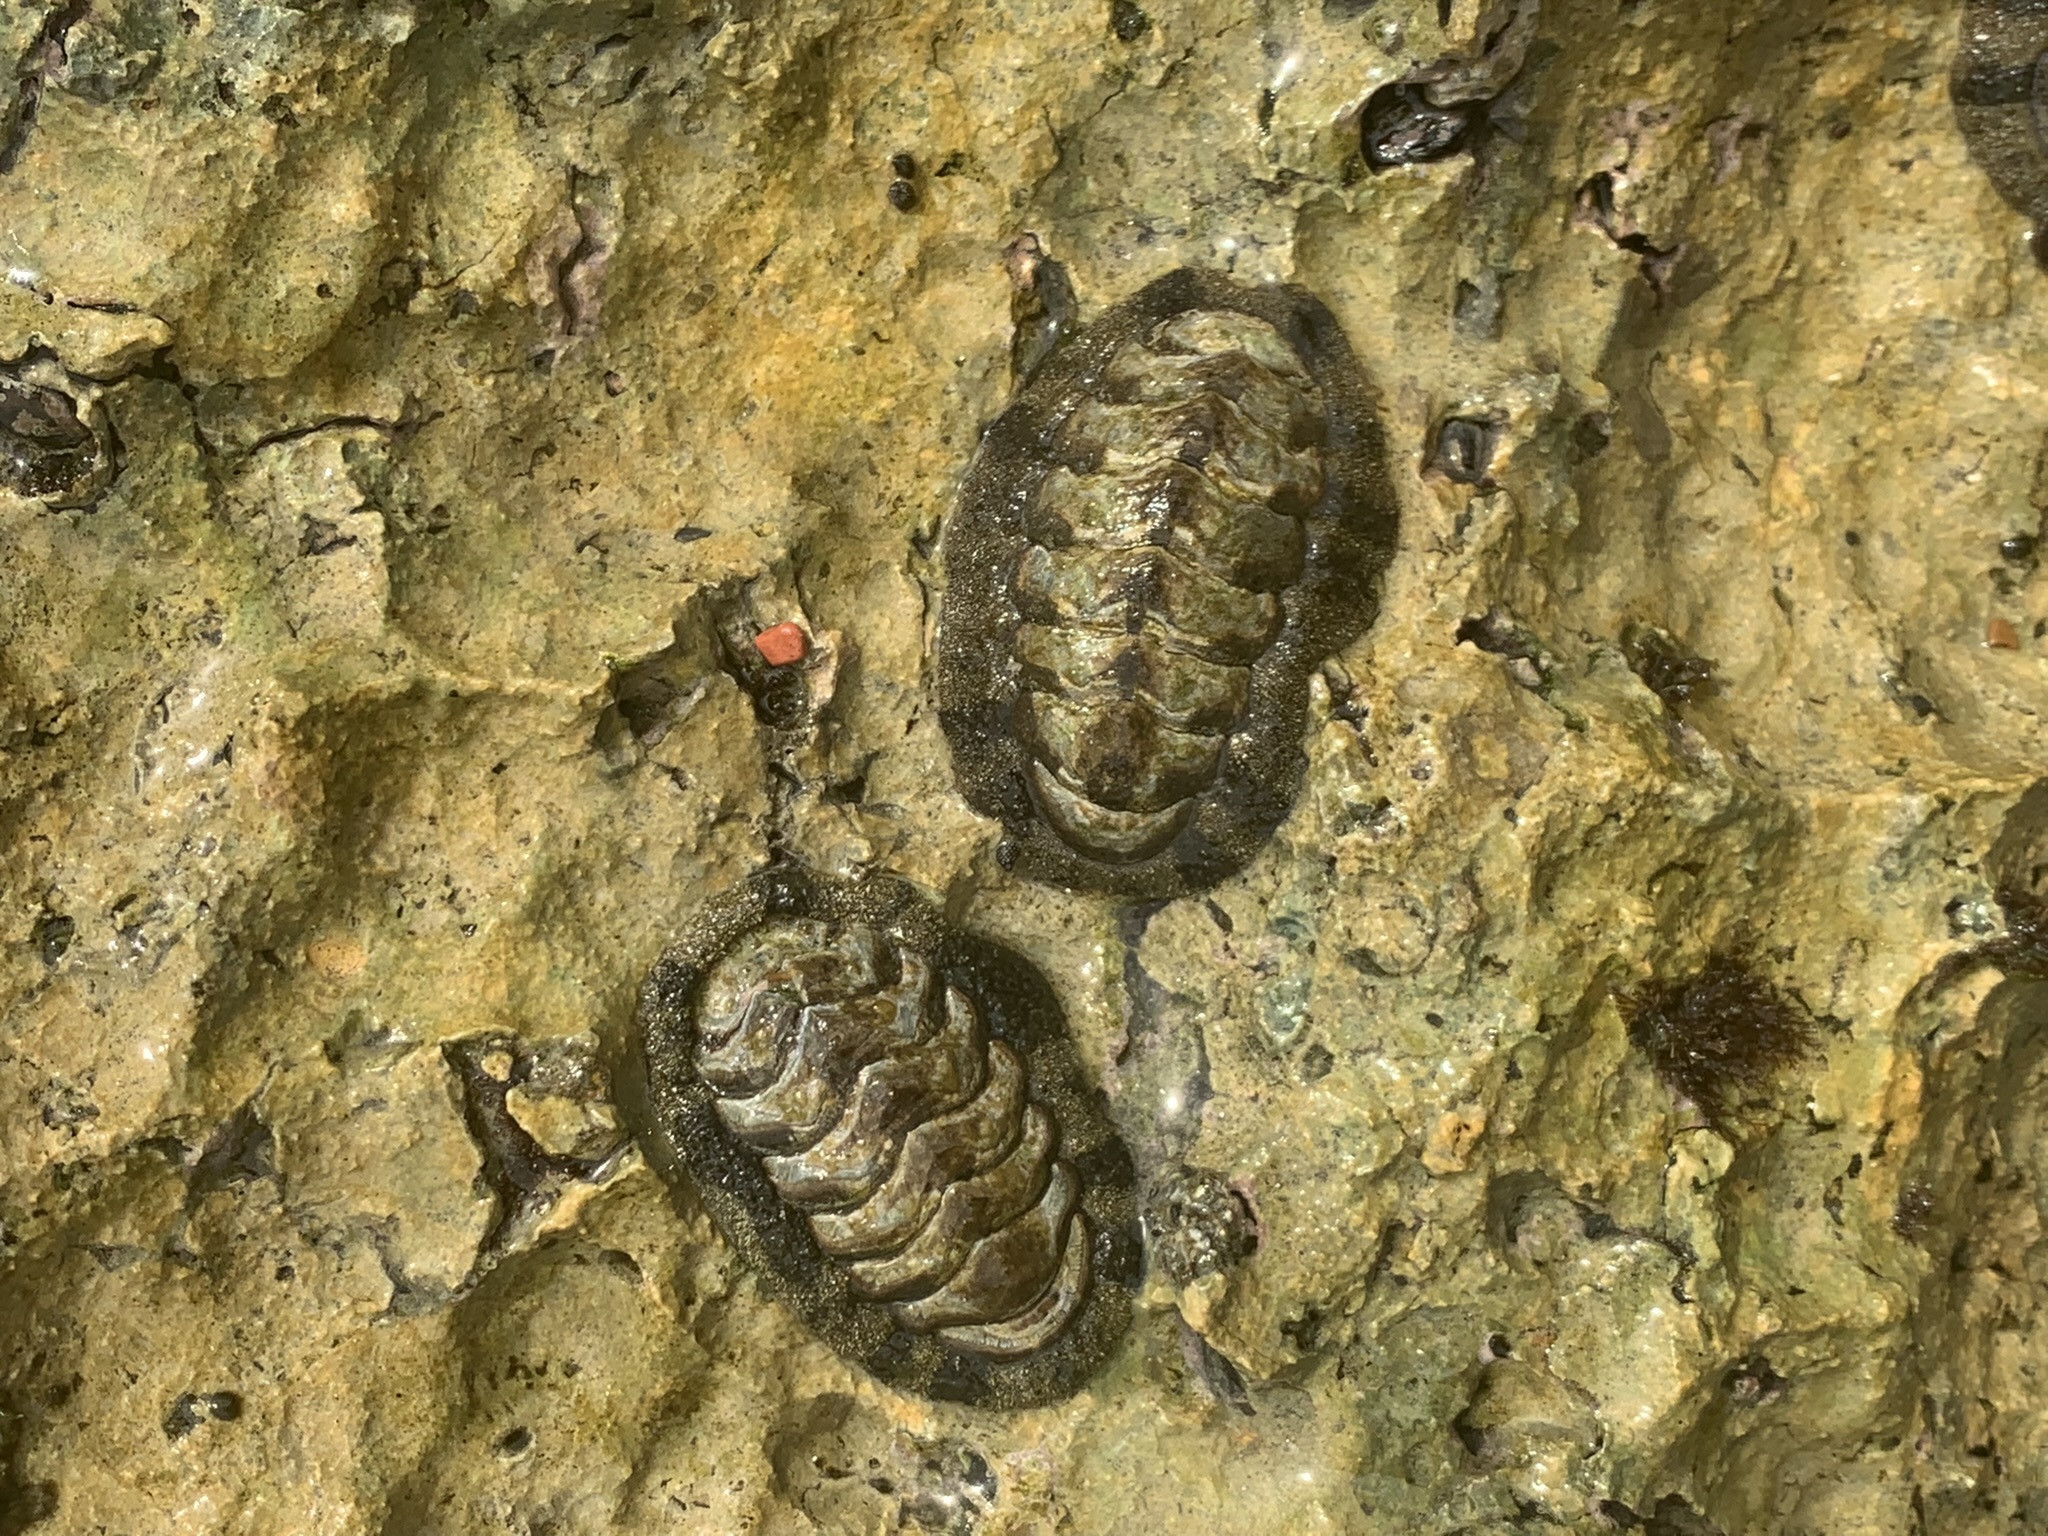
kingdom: Animalia
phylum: Mollusca
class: Polyplacophora
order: Chitonida
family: Chitonidae
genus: Acanthopleura
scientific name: Acanthopleura granulata
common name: West indian fuzzy chiton
